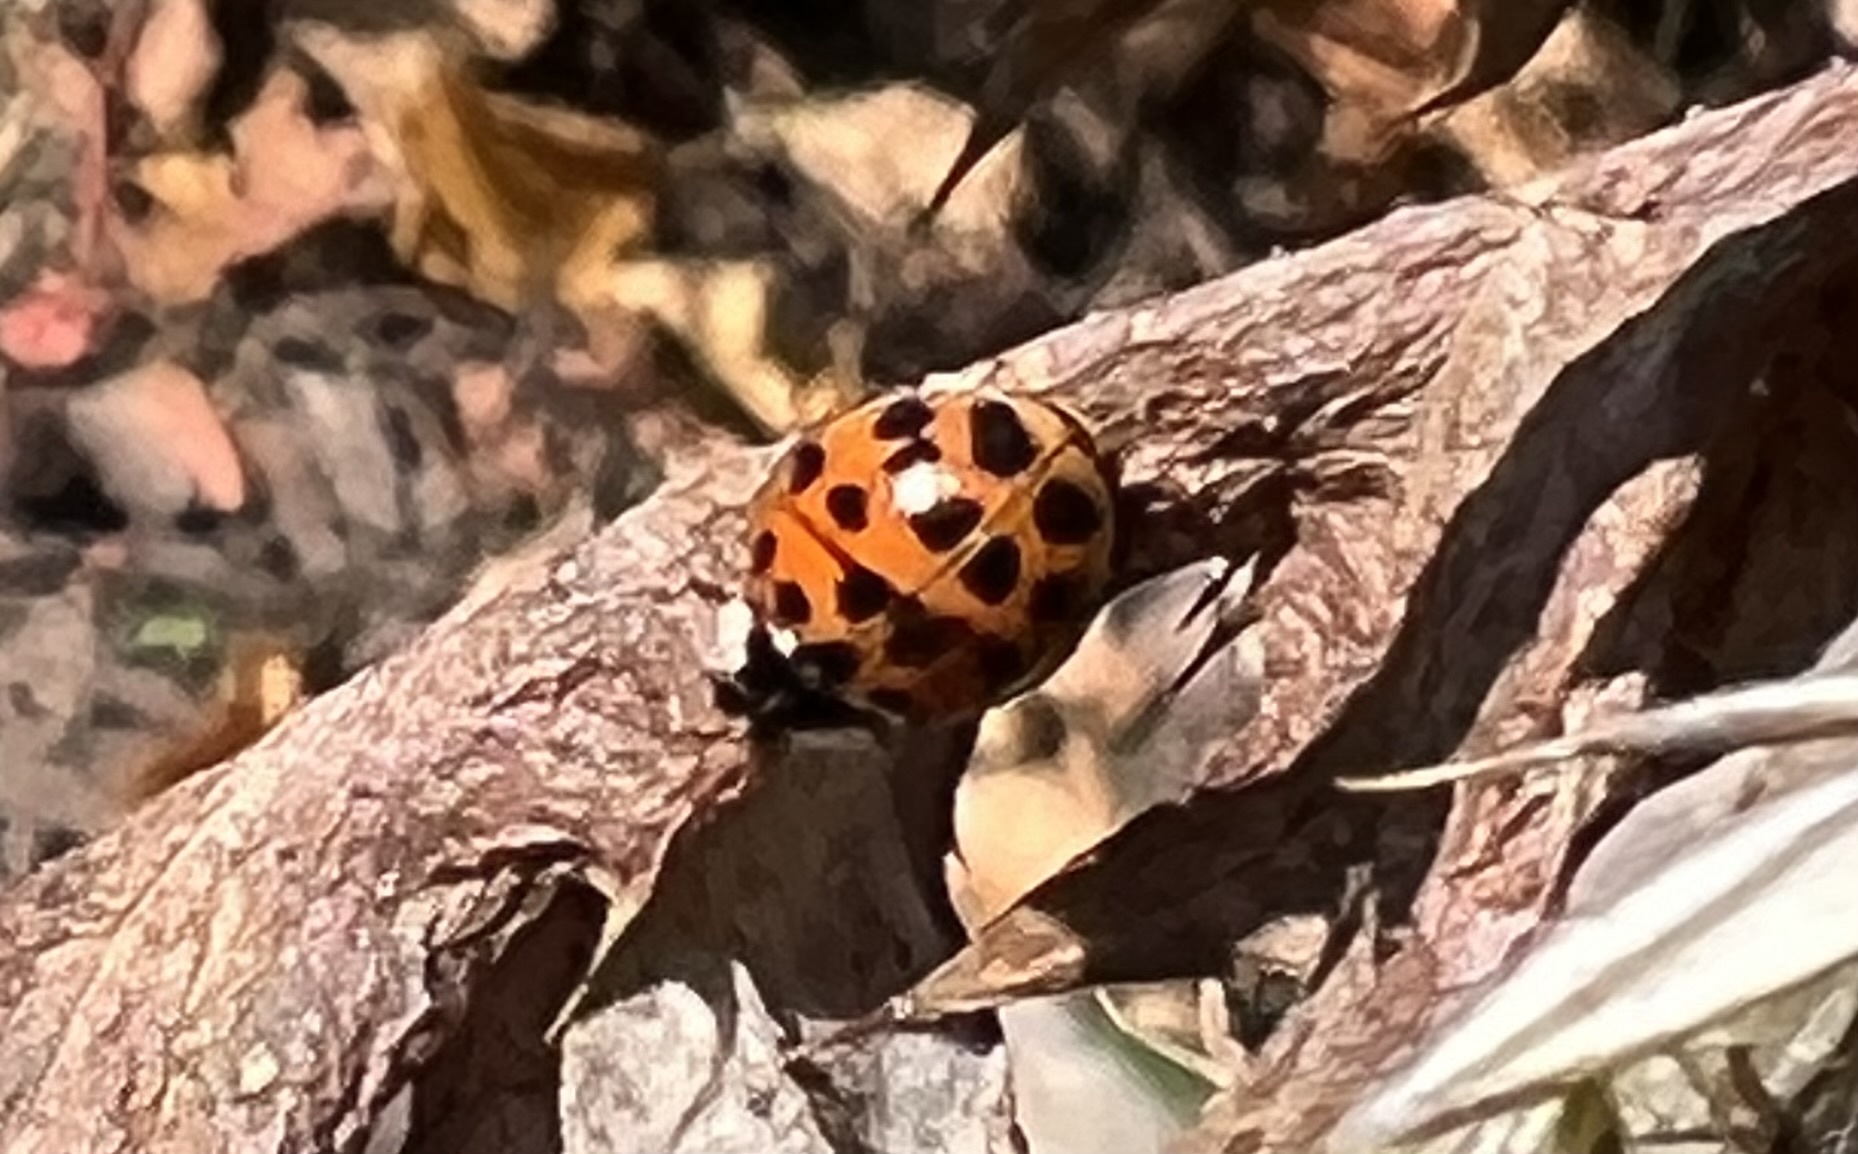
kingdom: Animalia
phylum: Arthropoda
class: Insecta
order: Coleoptera
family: Coccinellidae
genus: Harmonia
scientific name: Harmonia axyridis
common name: Harlequin ladybird
